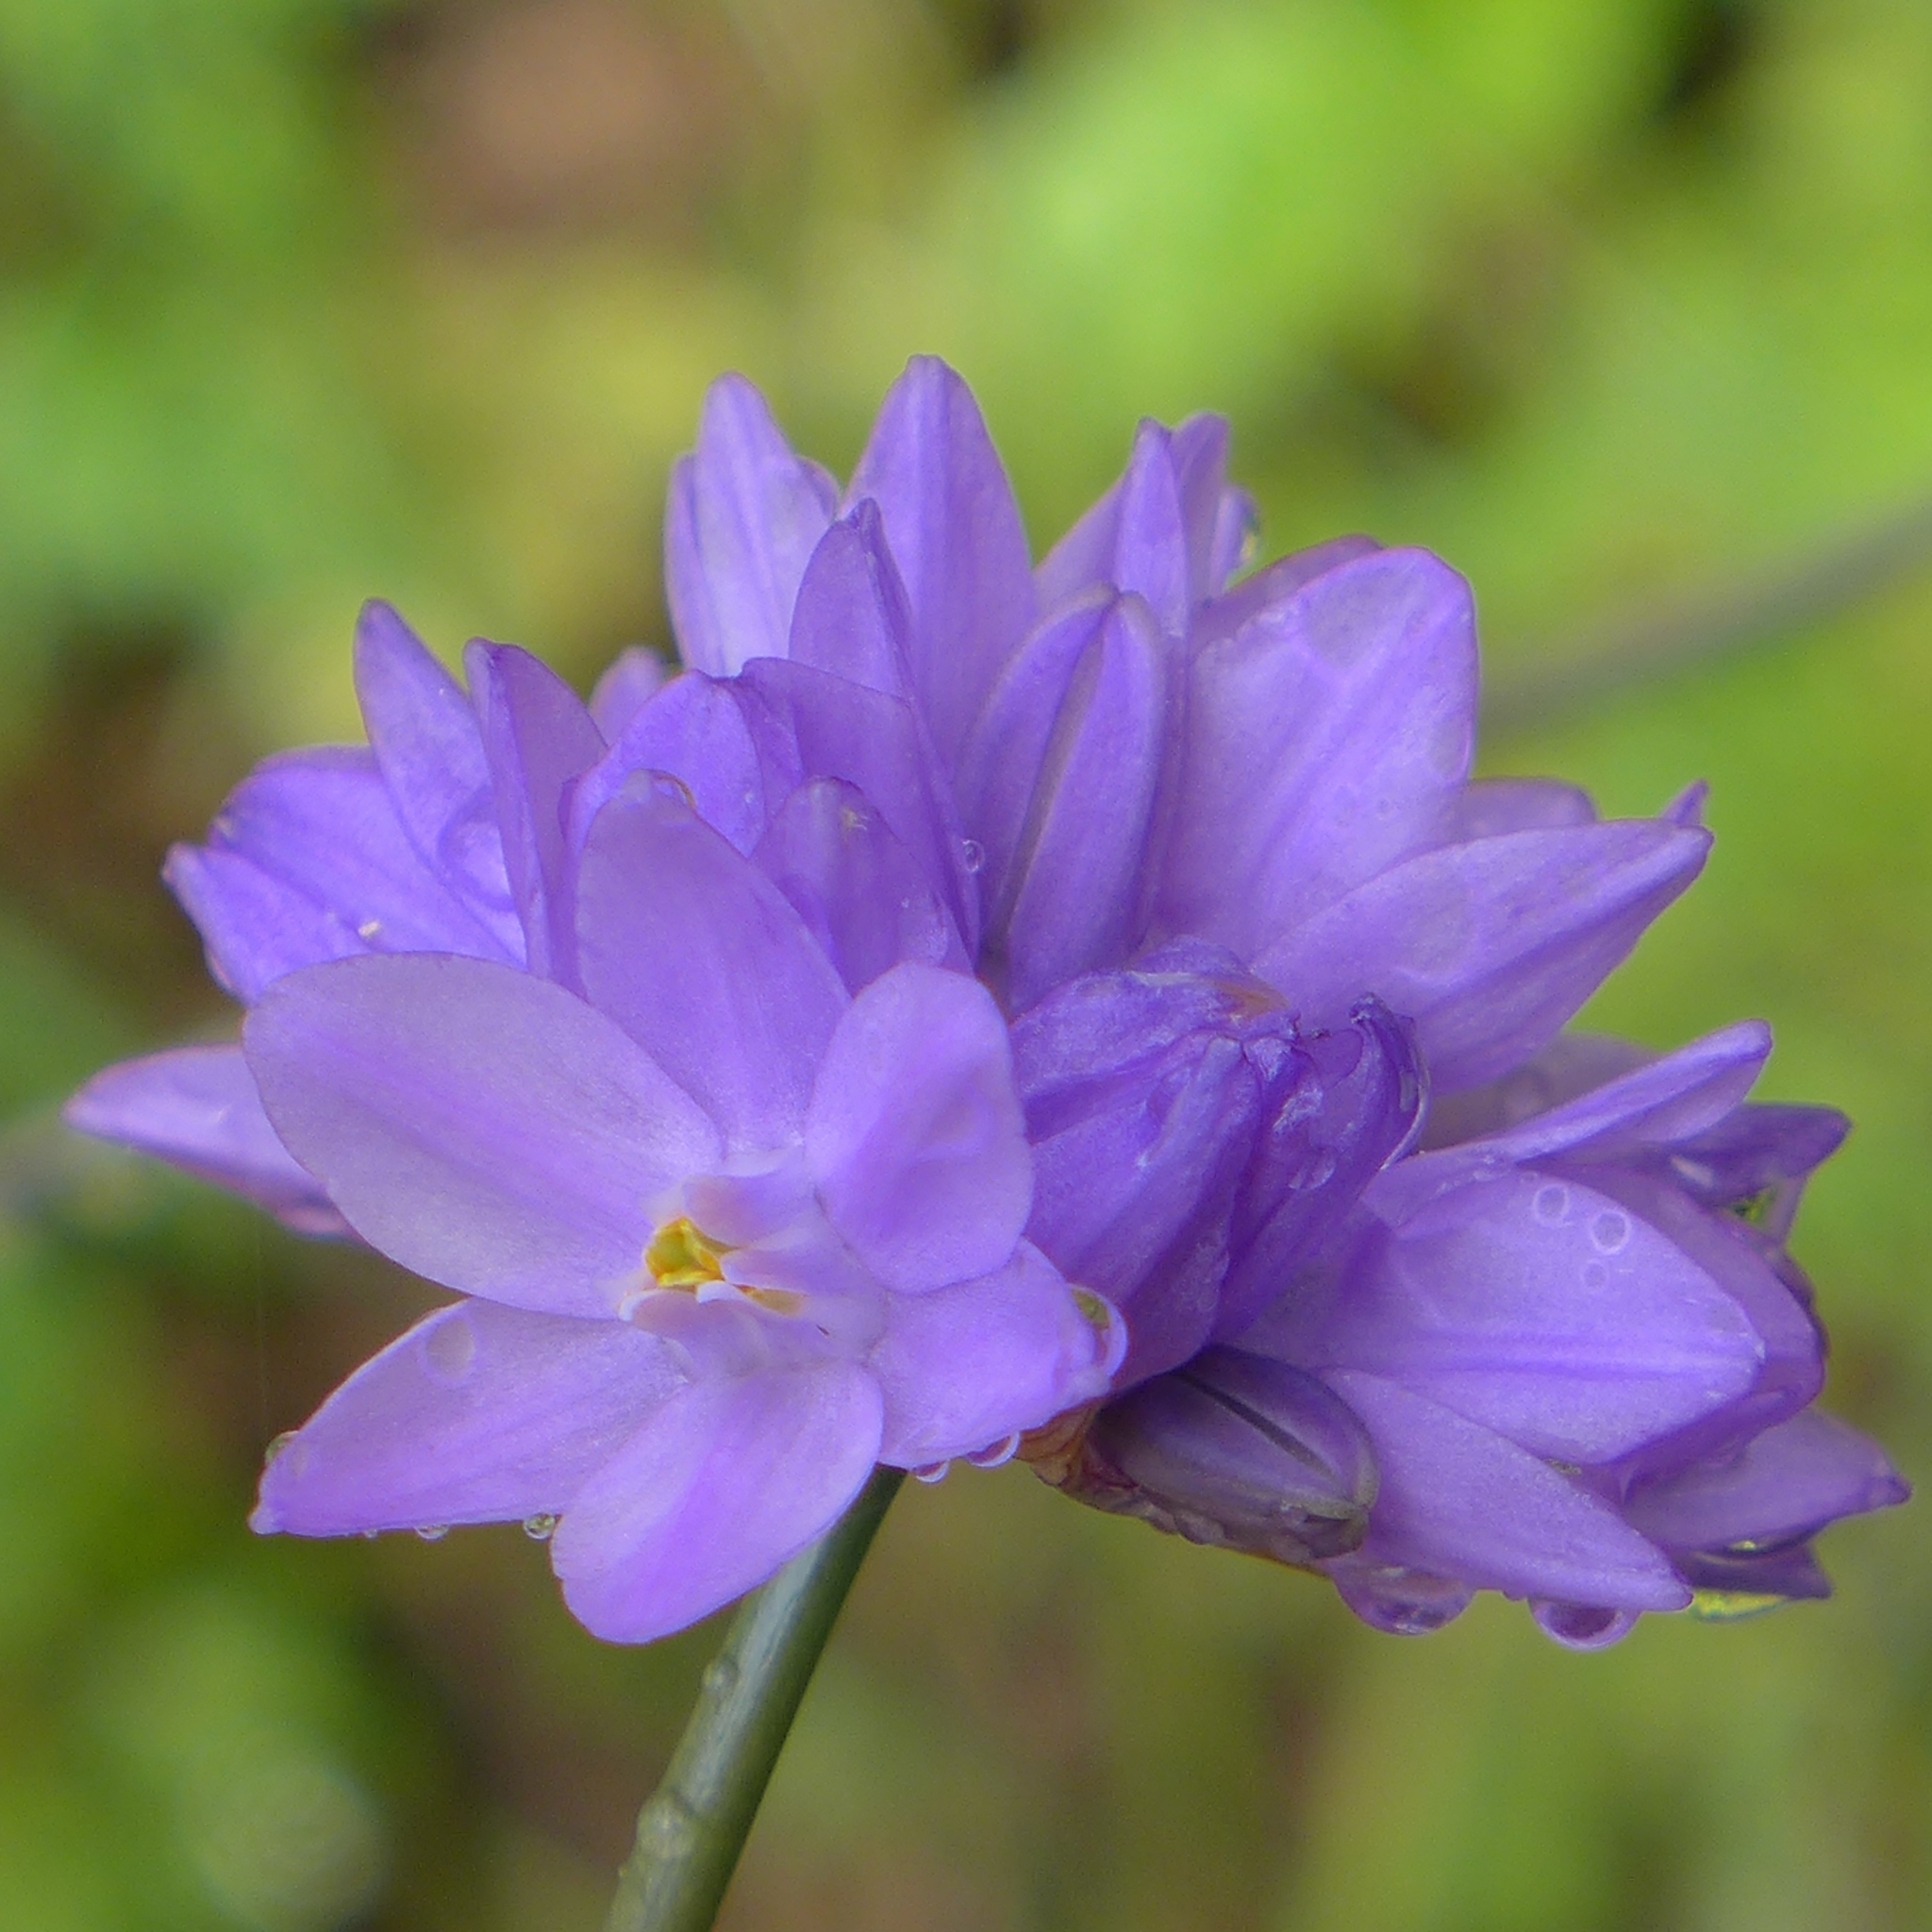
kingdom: Plantae
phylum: Tracheophyta
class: Liliopsida
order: Asparagales
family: Asparagaceae
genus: Dipterostemon
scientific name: Dipterostemon capitatus
